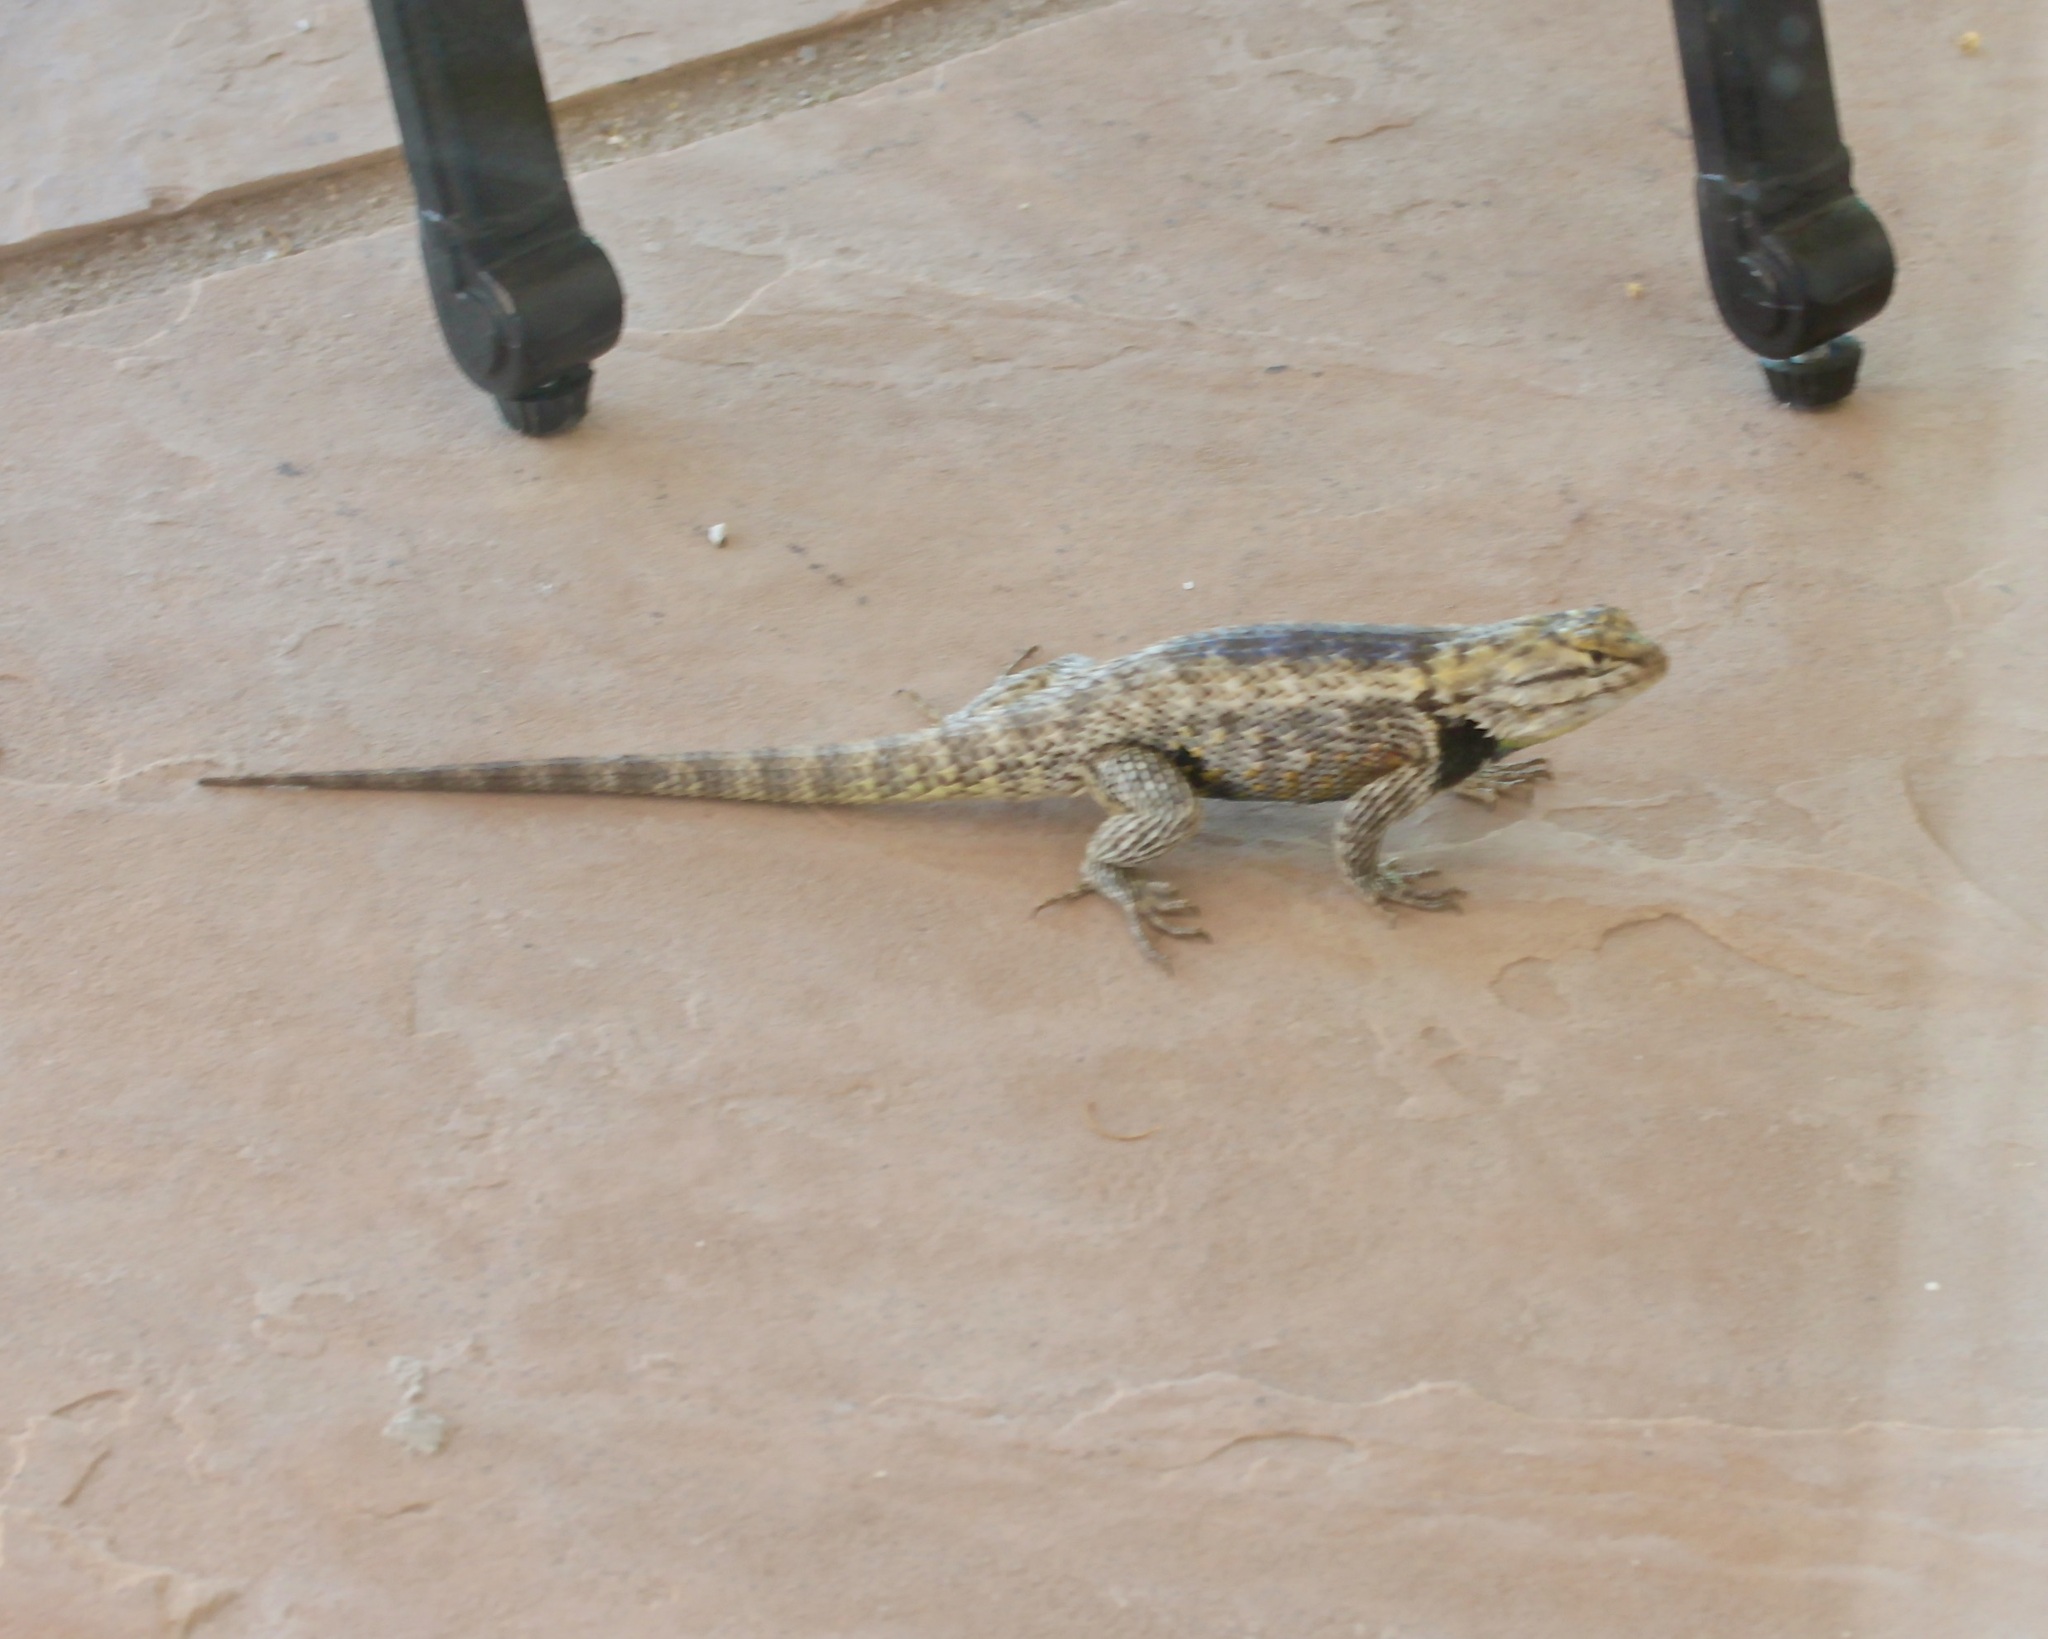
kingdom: Animalia
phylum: Chordata
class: Squamata
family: Phrynosomatidae
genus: Sceloporus
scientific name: Sceloporus magister
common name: Desert spiny lizard
